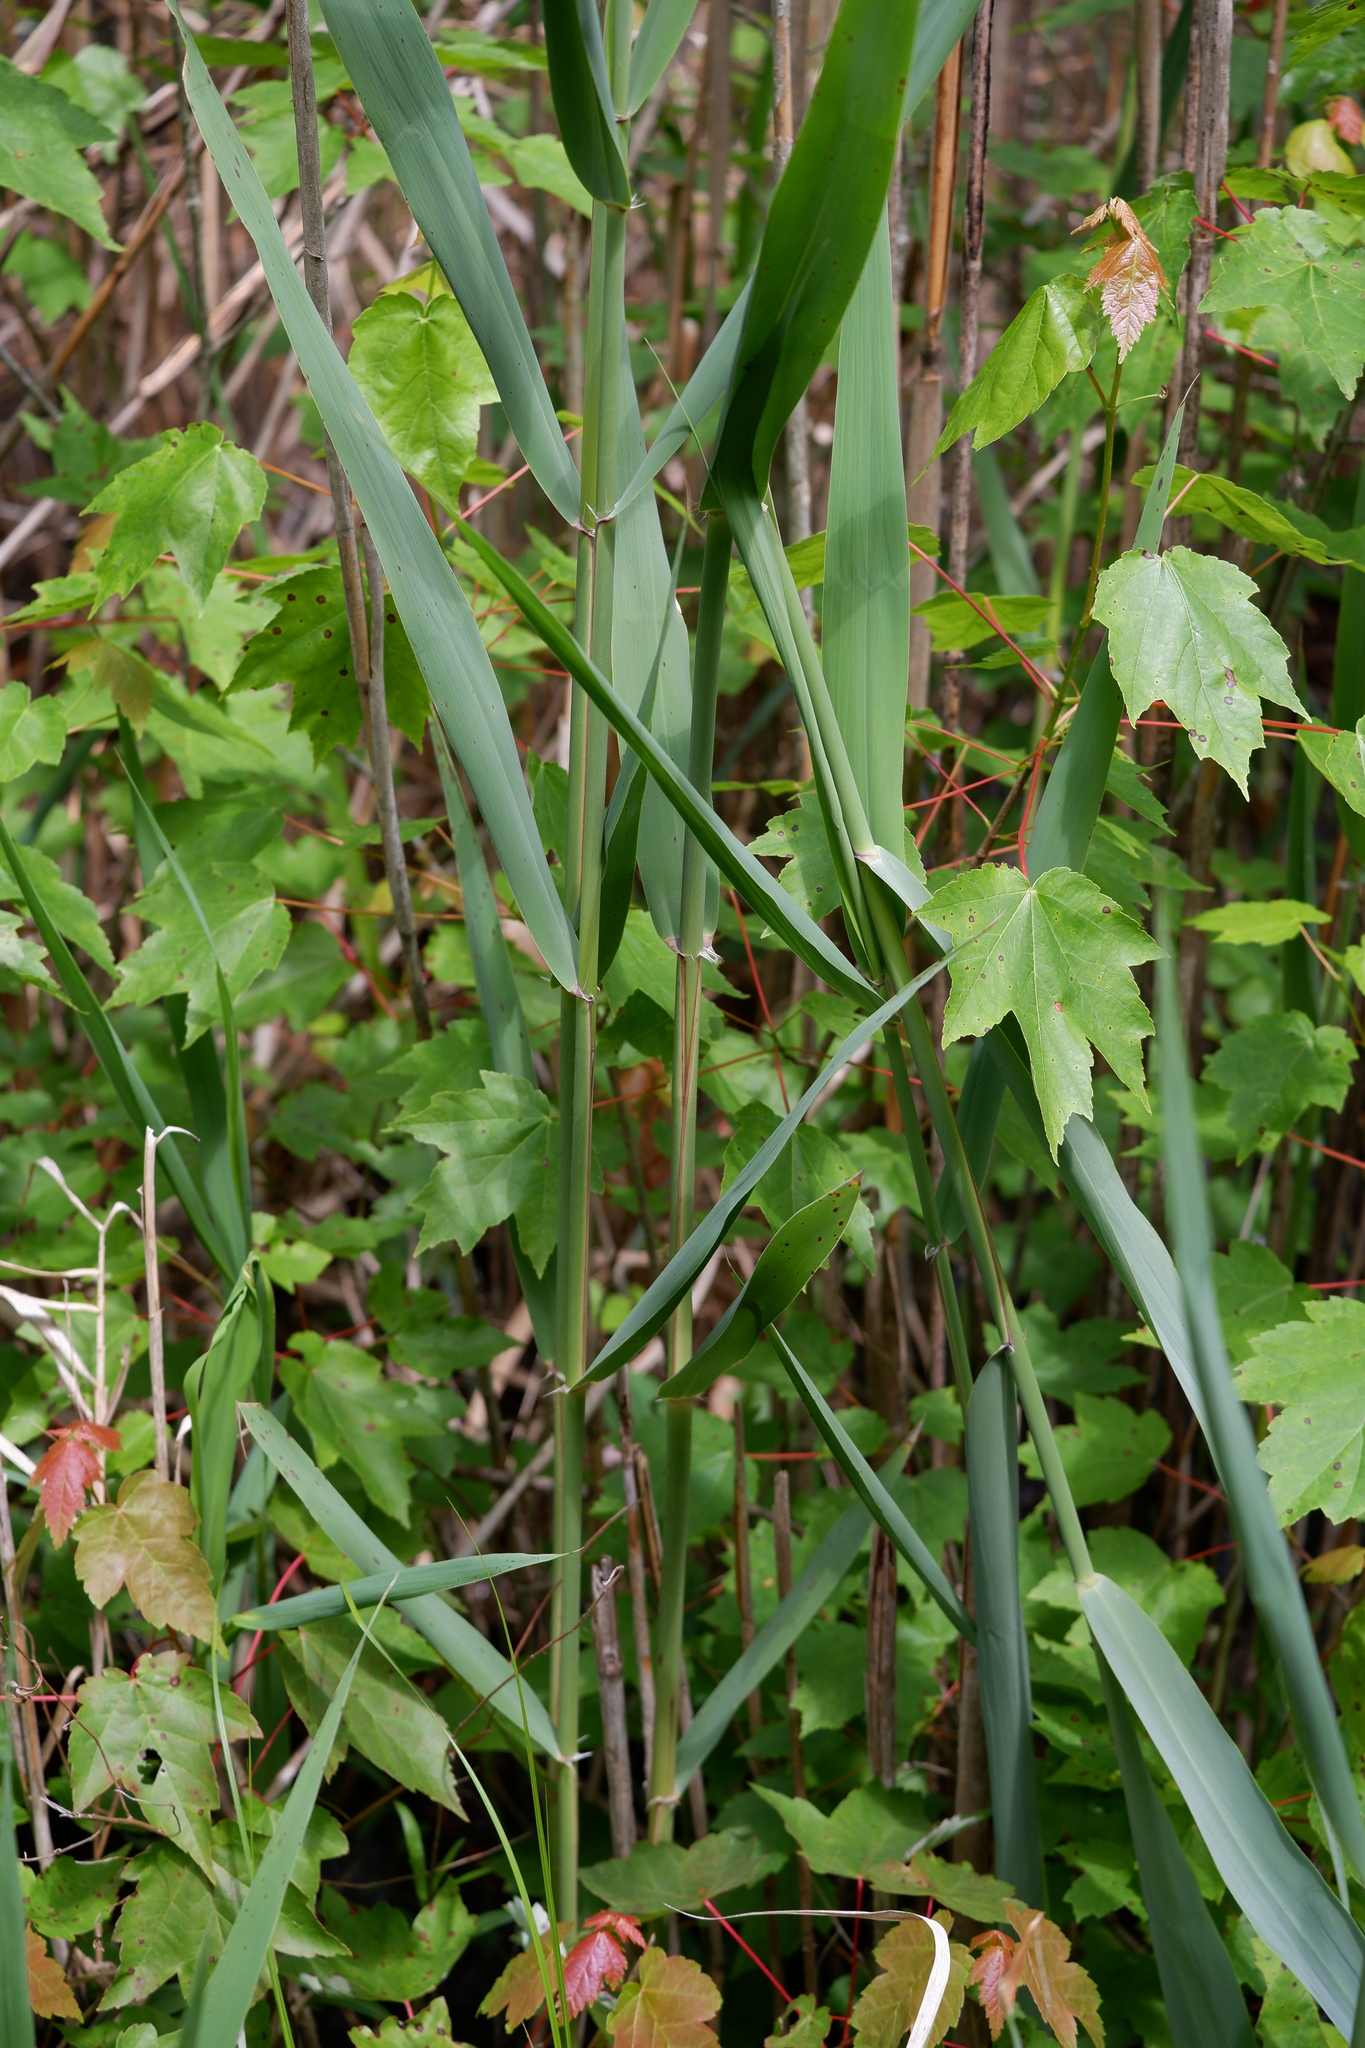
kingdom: Plantae
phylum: Tracheophyta
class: Liliopsida
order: Poales
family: Poaceae
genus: Phragmites
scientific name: Phragmites australis
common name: Common reed
